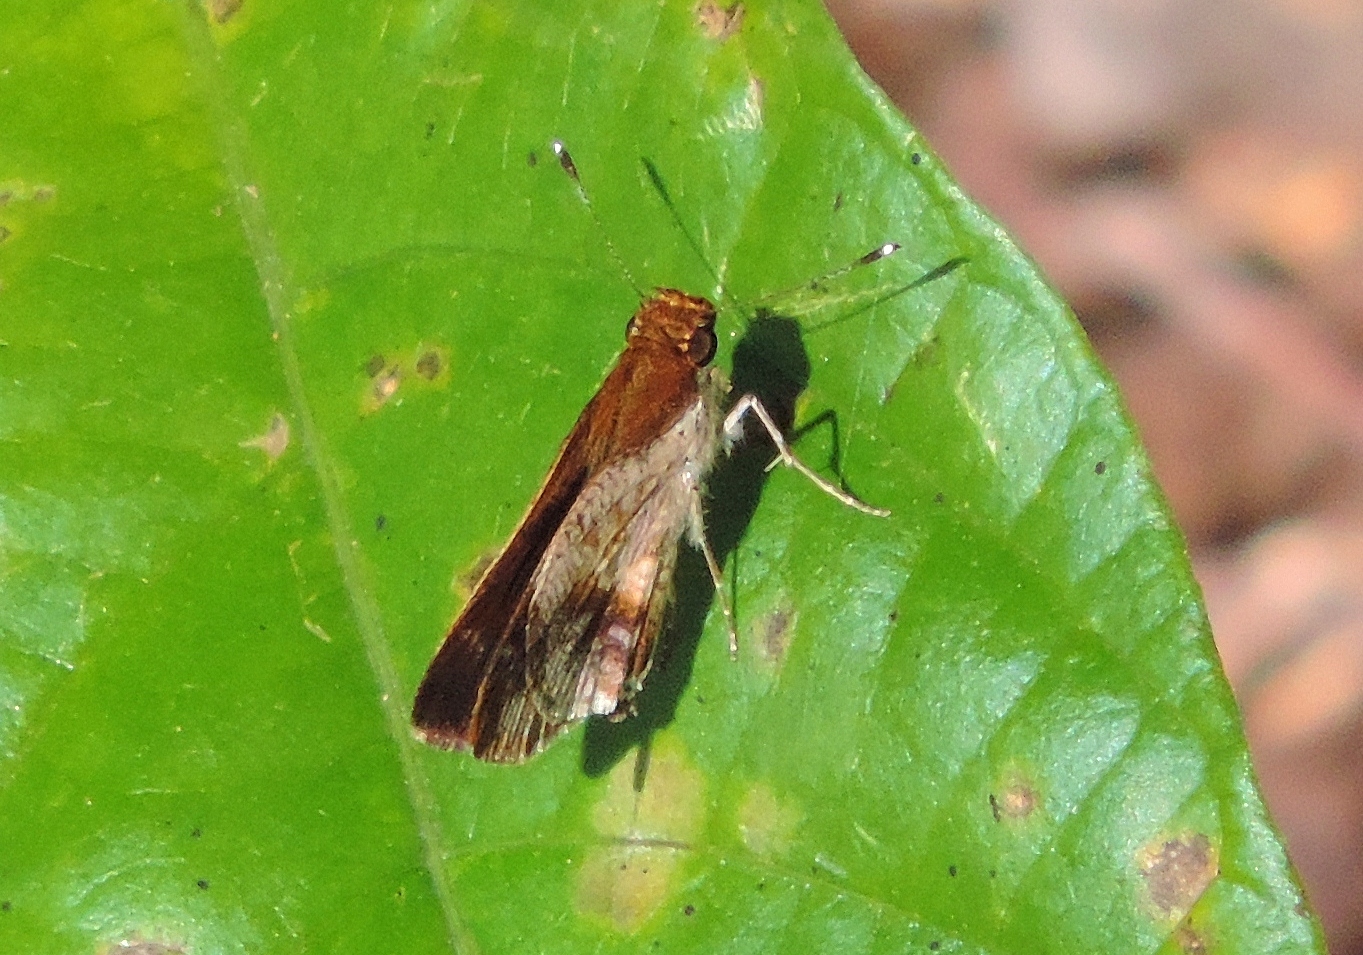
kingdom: Animalia
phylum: Arthropoda
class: Insecta
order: Lepidoptera
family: Hesperiidae
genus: Acleros
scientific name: Acleros mackenii
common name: Shade dart
